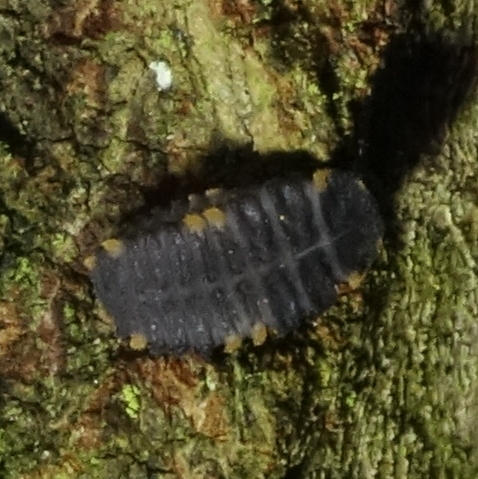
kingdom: Animalia
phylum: Arthropoda
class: Insecta
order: Coleoptera
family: Endomychidae
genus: Endomychus
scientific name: Endomychus coccineus
